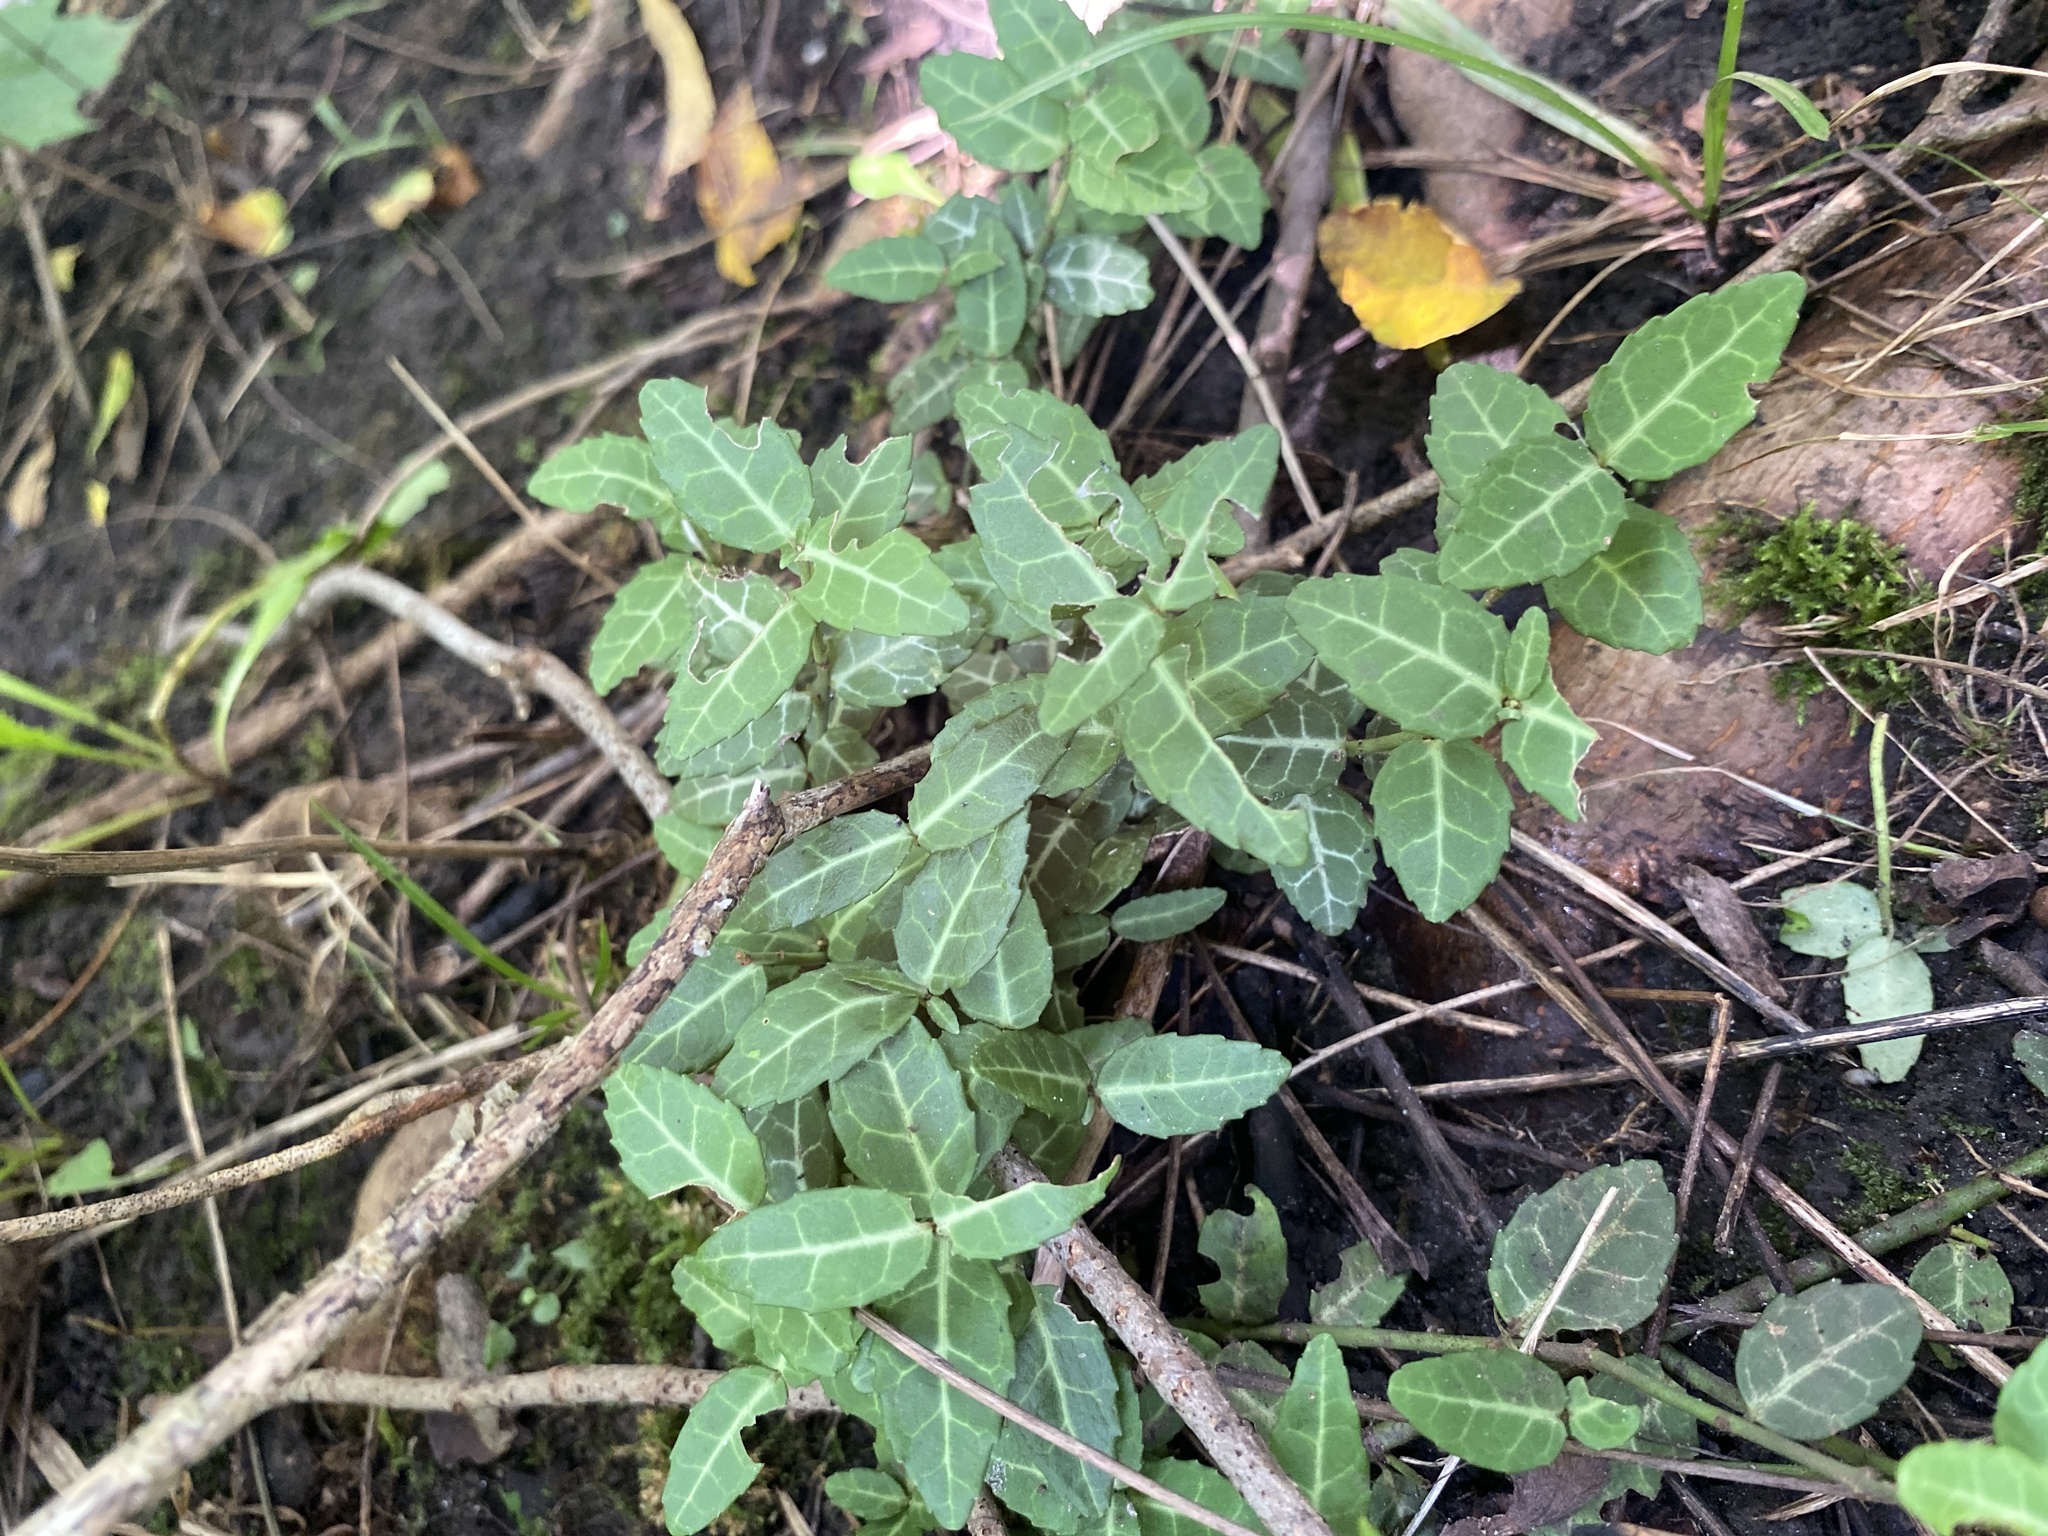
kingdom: Plantae
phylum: Tracheophyta
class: Magnoliopsida
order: Celastrales
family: Celastraceae
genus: Euonymus
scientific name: Euonymus fortunei
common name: Climbing euonymus
